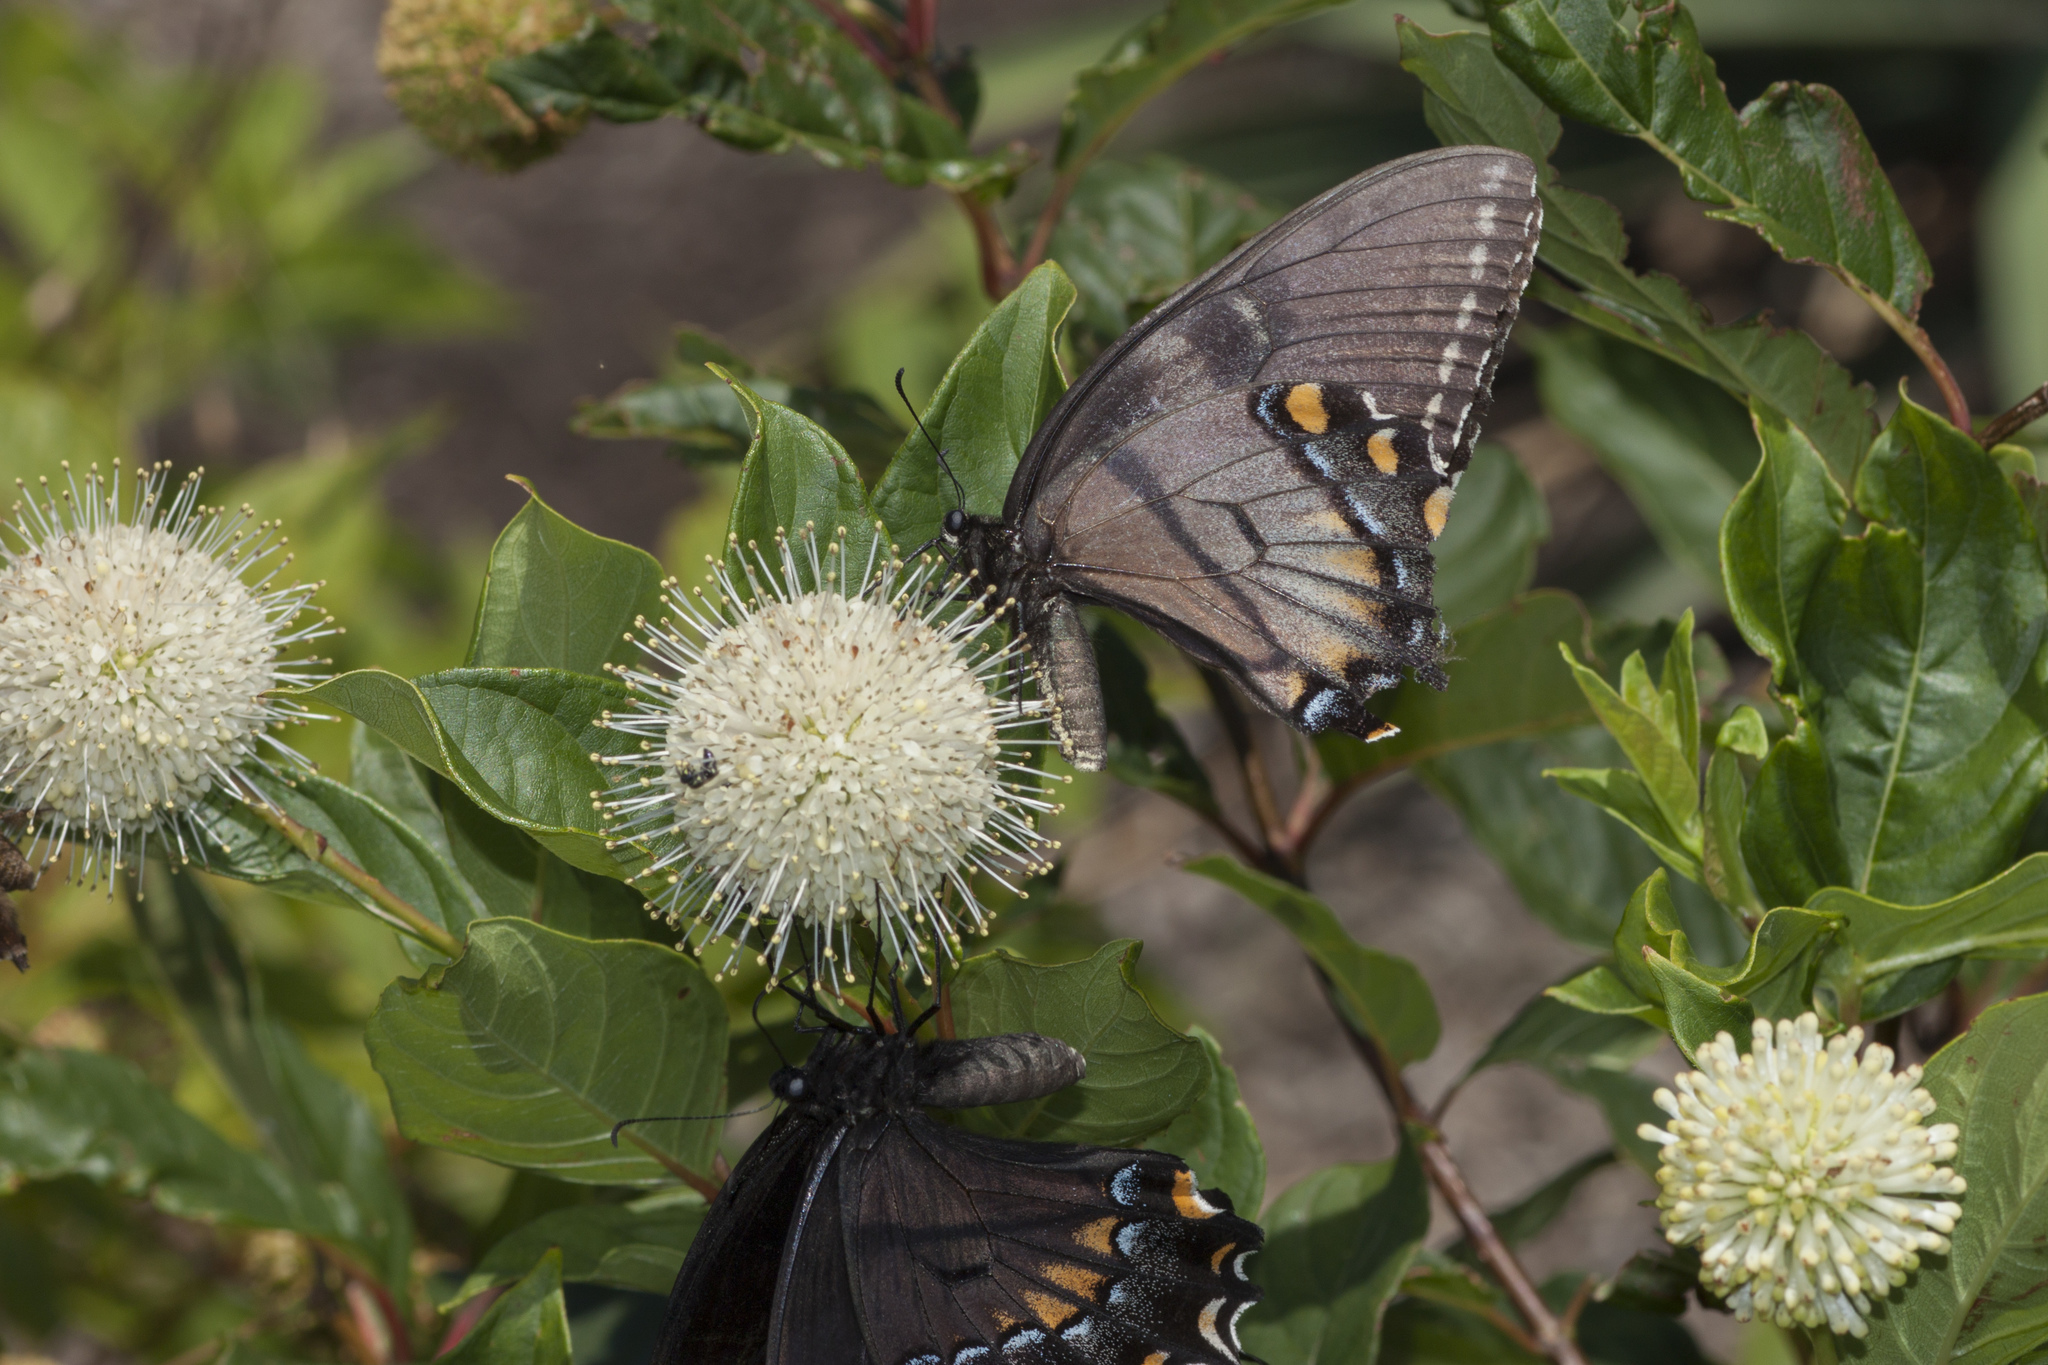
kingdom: Animalia
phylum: Arthropoda
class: Insecta
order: Lepidoptera
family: Papilionidae
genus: Papilio
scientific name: Papilio glaucus
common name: Tiger swallowtail
